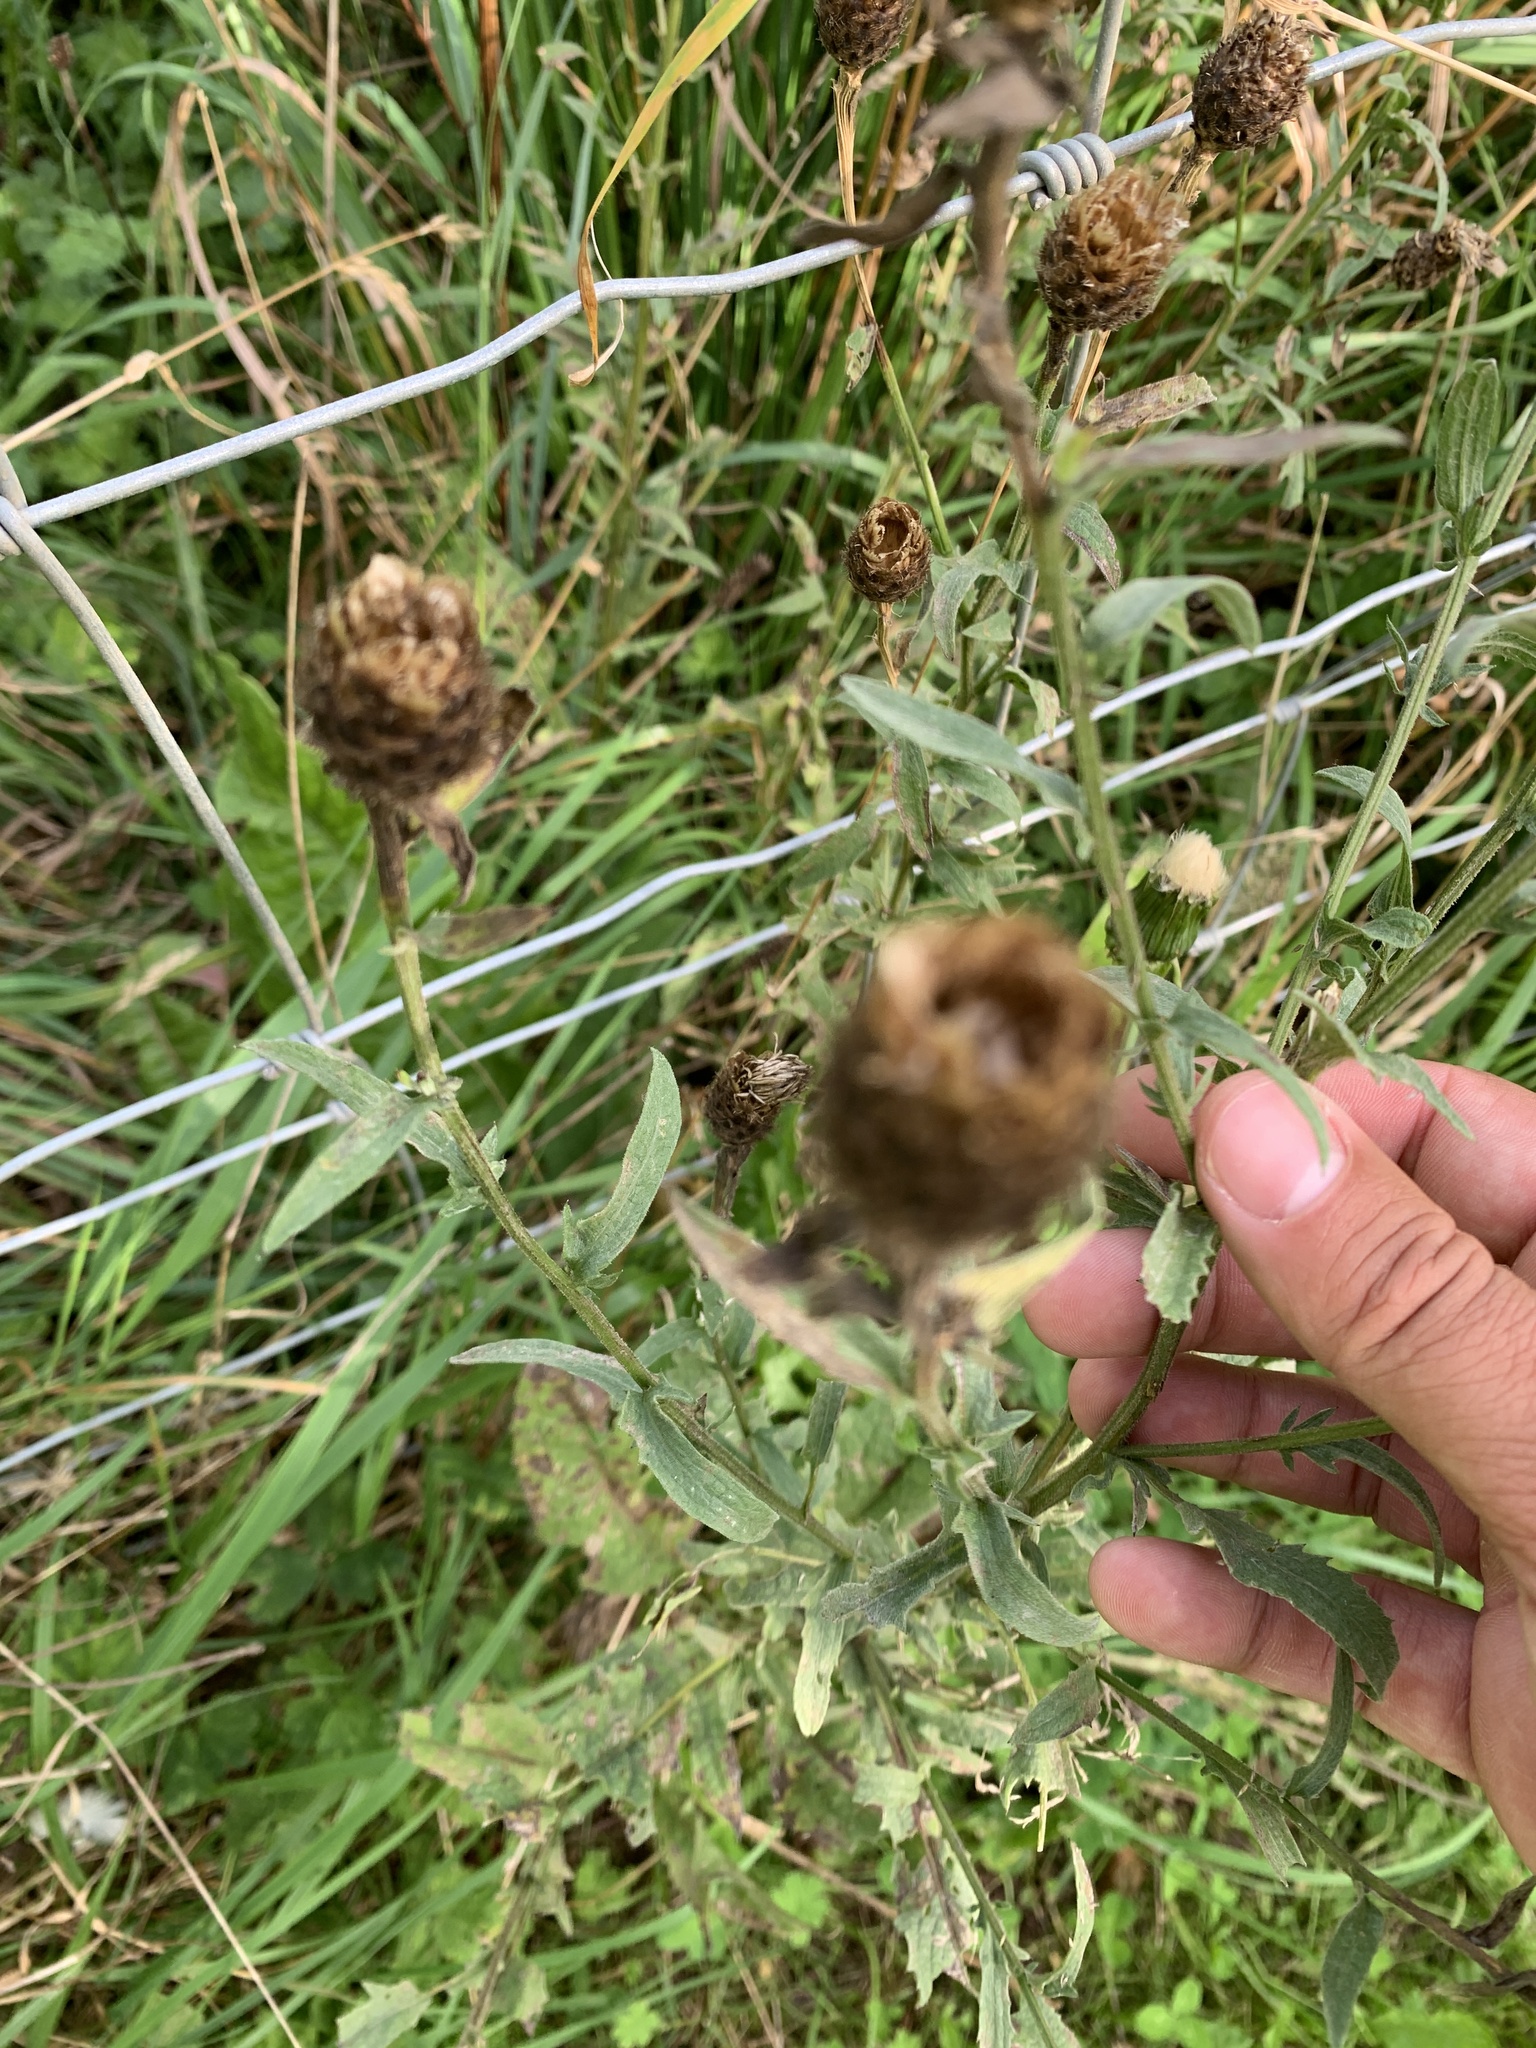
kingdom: Plantae
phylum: Tracheophyta
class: Magnoliopsida
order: Asterales
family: Asteraceae
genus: Centaurea
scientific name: Centaurea nigra
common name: Lesser knapweed
